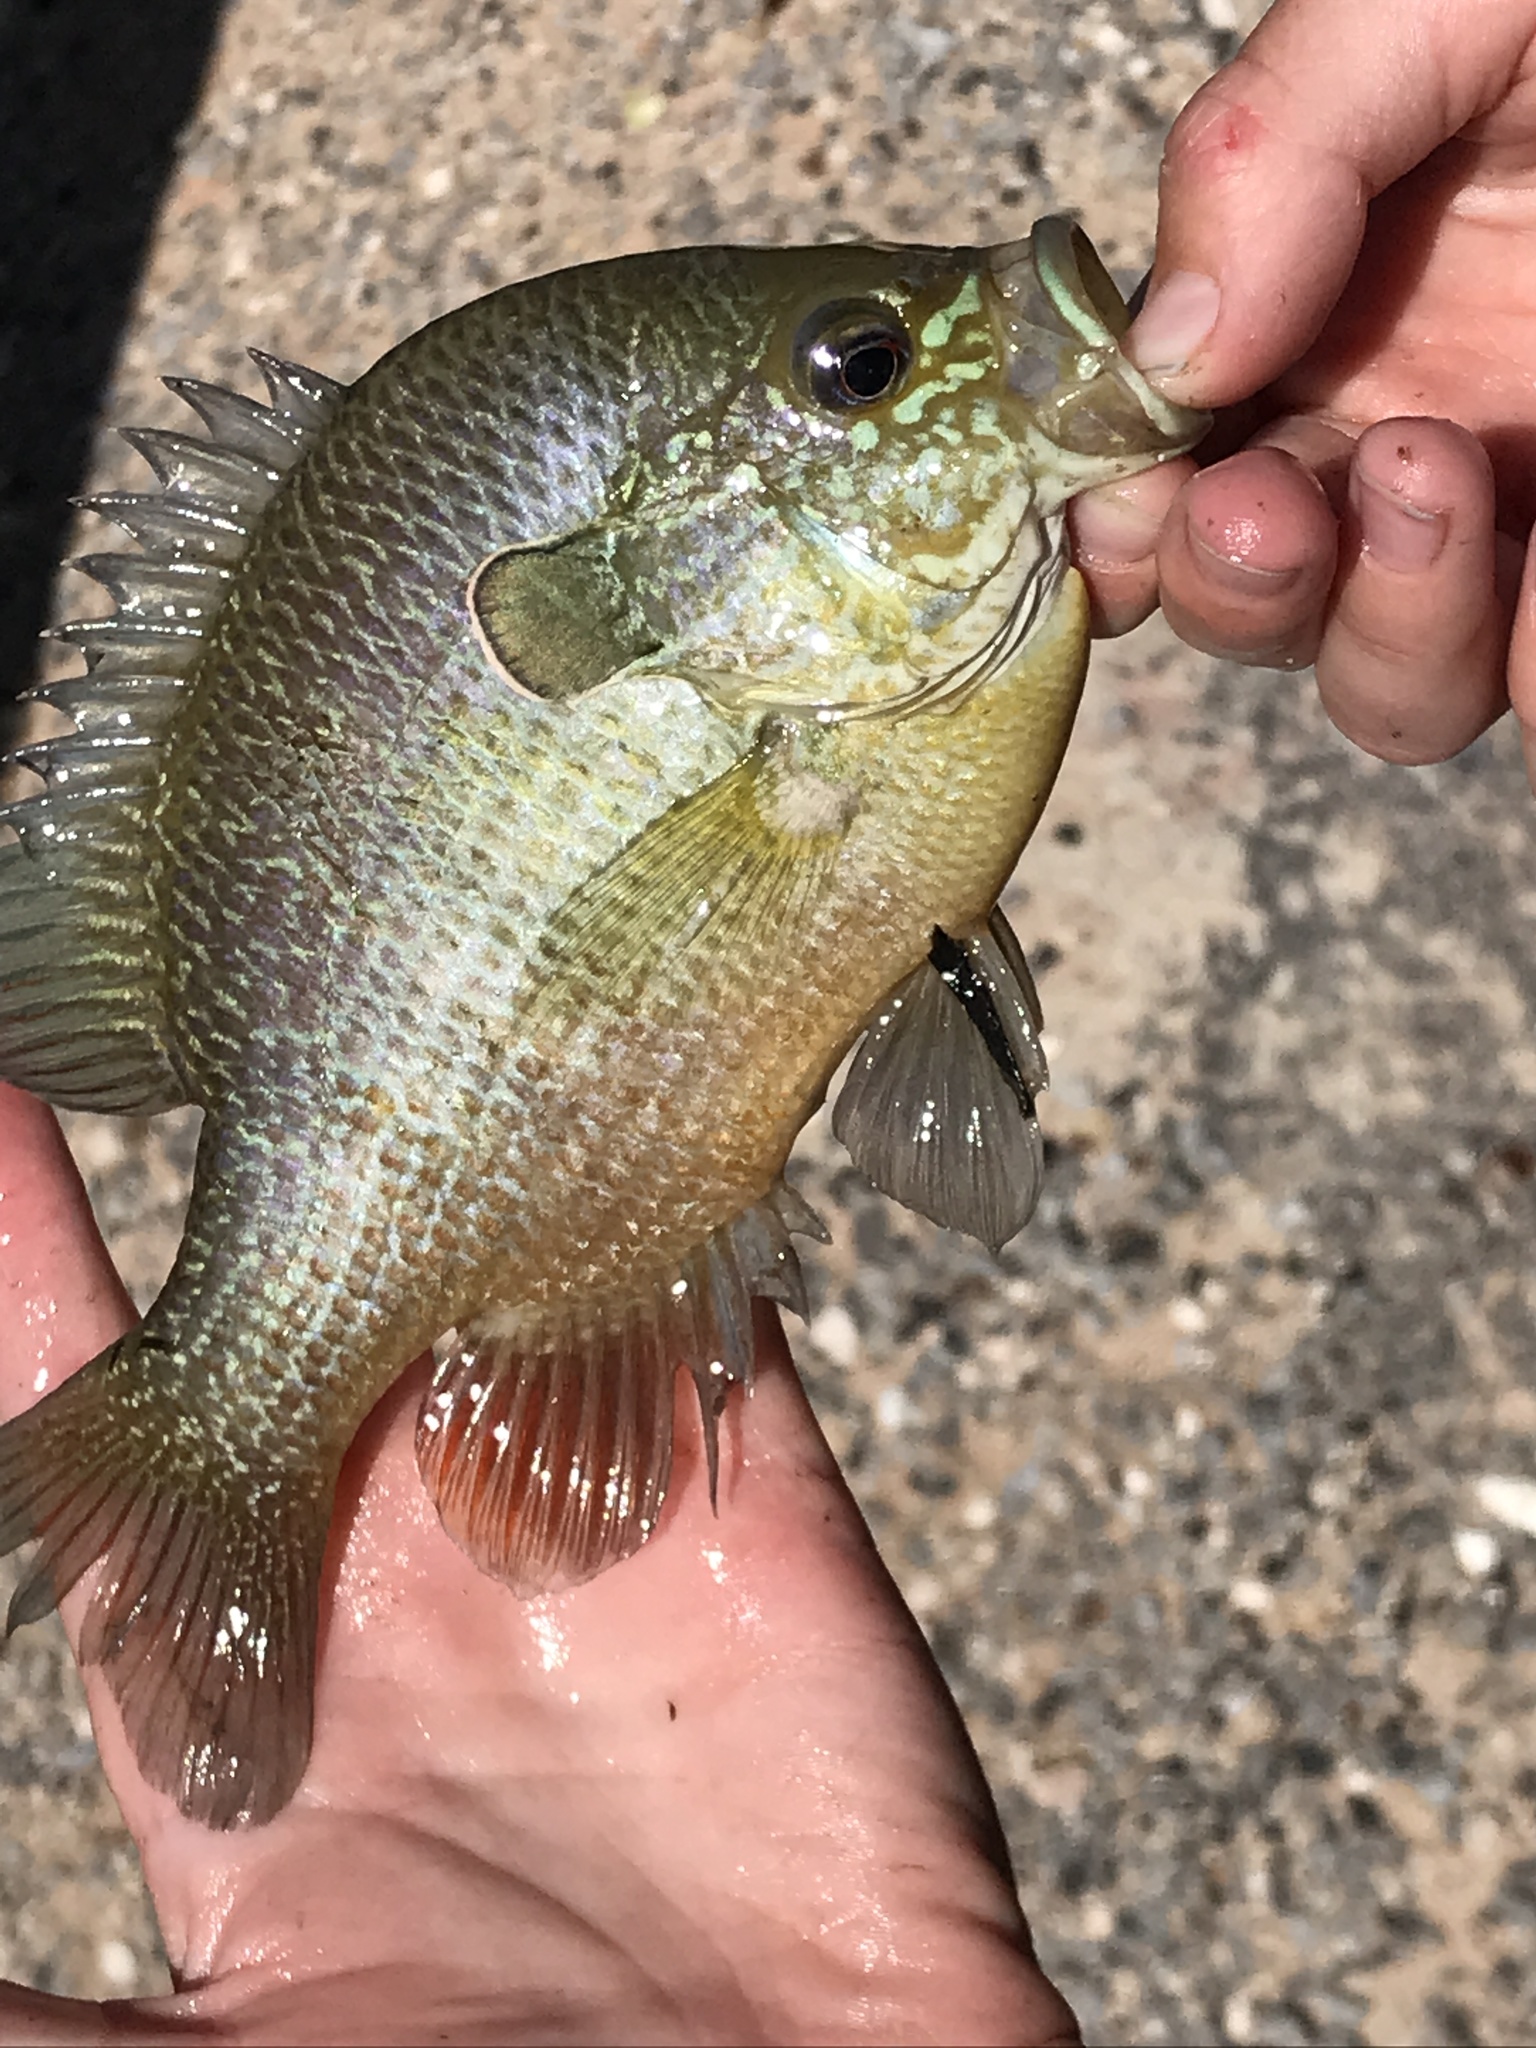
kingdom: Animalia
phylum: Chordata
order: Perciformes
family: Centrarchidae
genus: Lepomis
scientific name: Lepomis megalotis
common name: Longear sunfish
